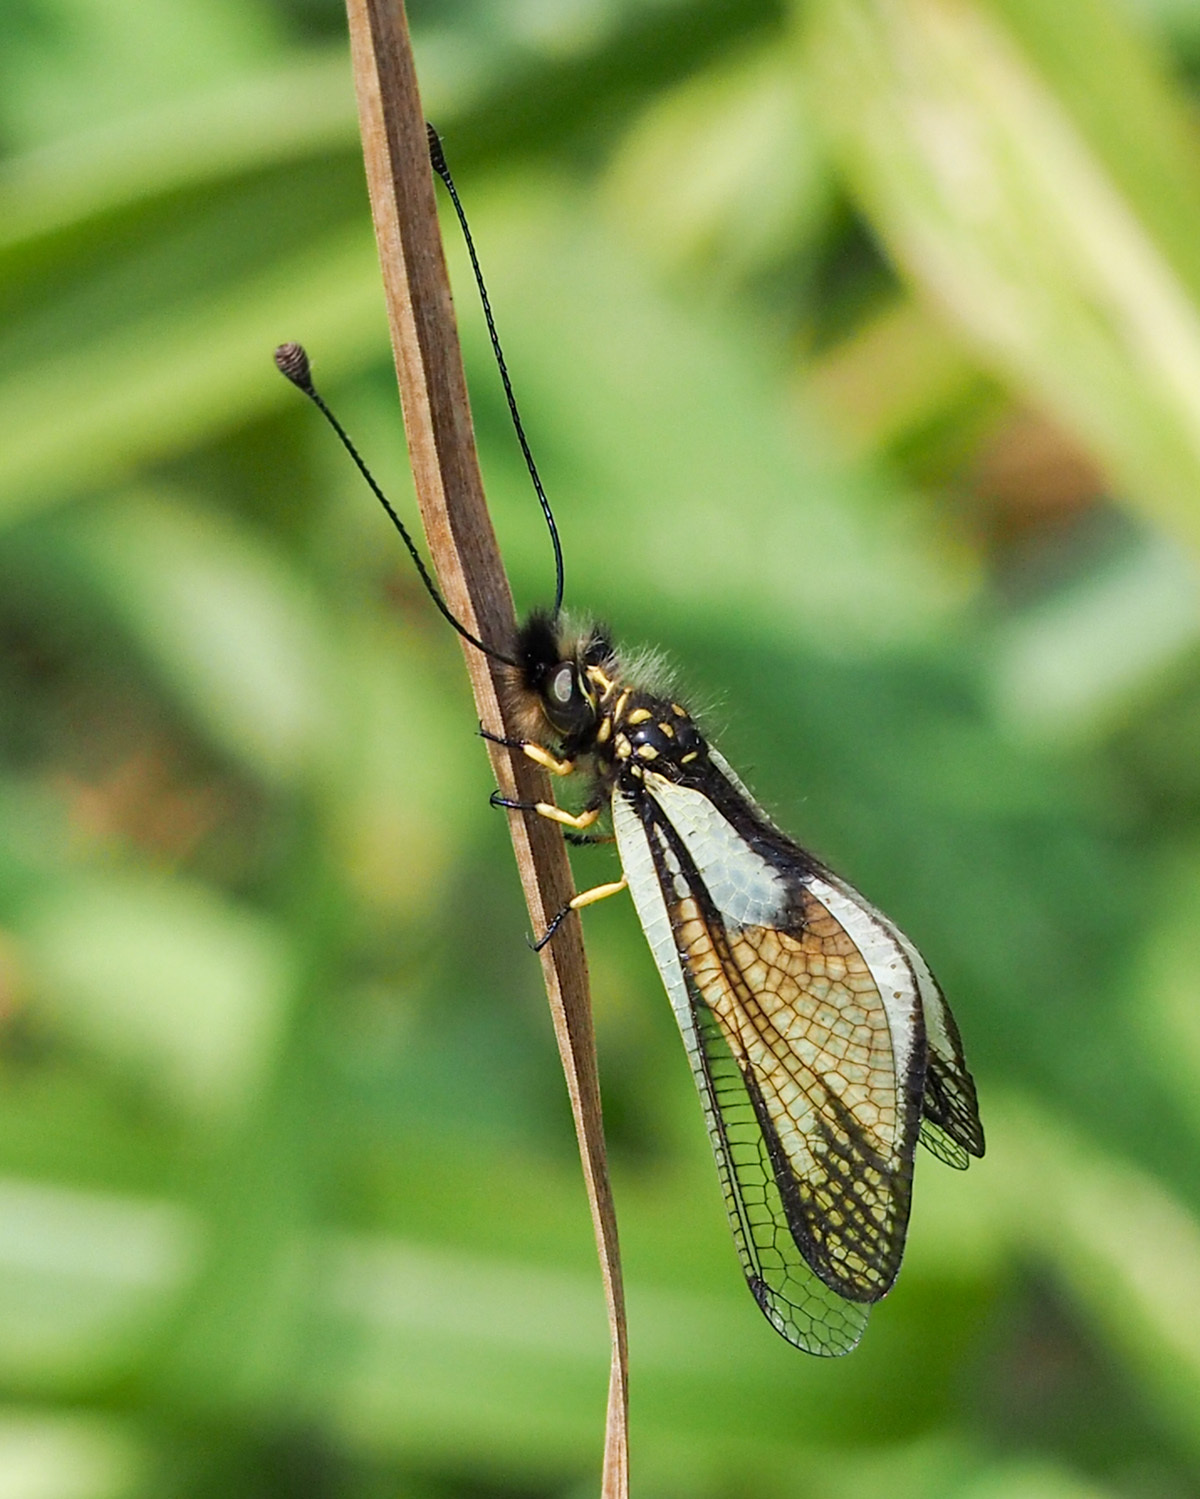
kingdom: Animalia
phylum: Arthropoda
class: Insecta
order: Neuroptera
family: Ascalaphidae
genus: Libelloides
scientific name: Libelloides latinus
